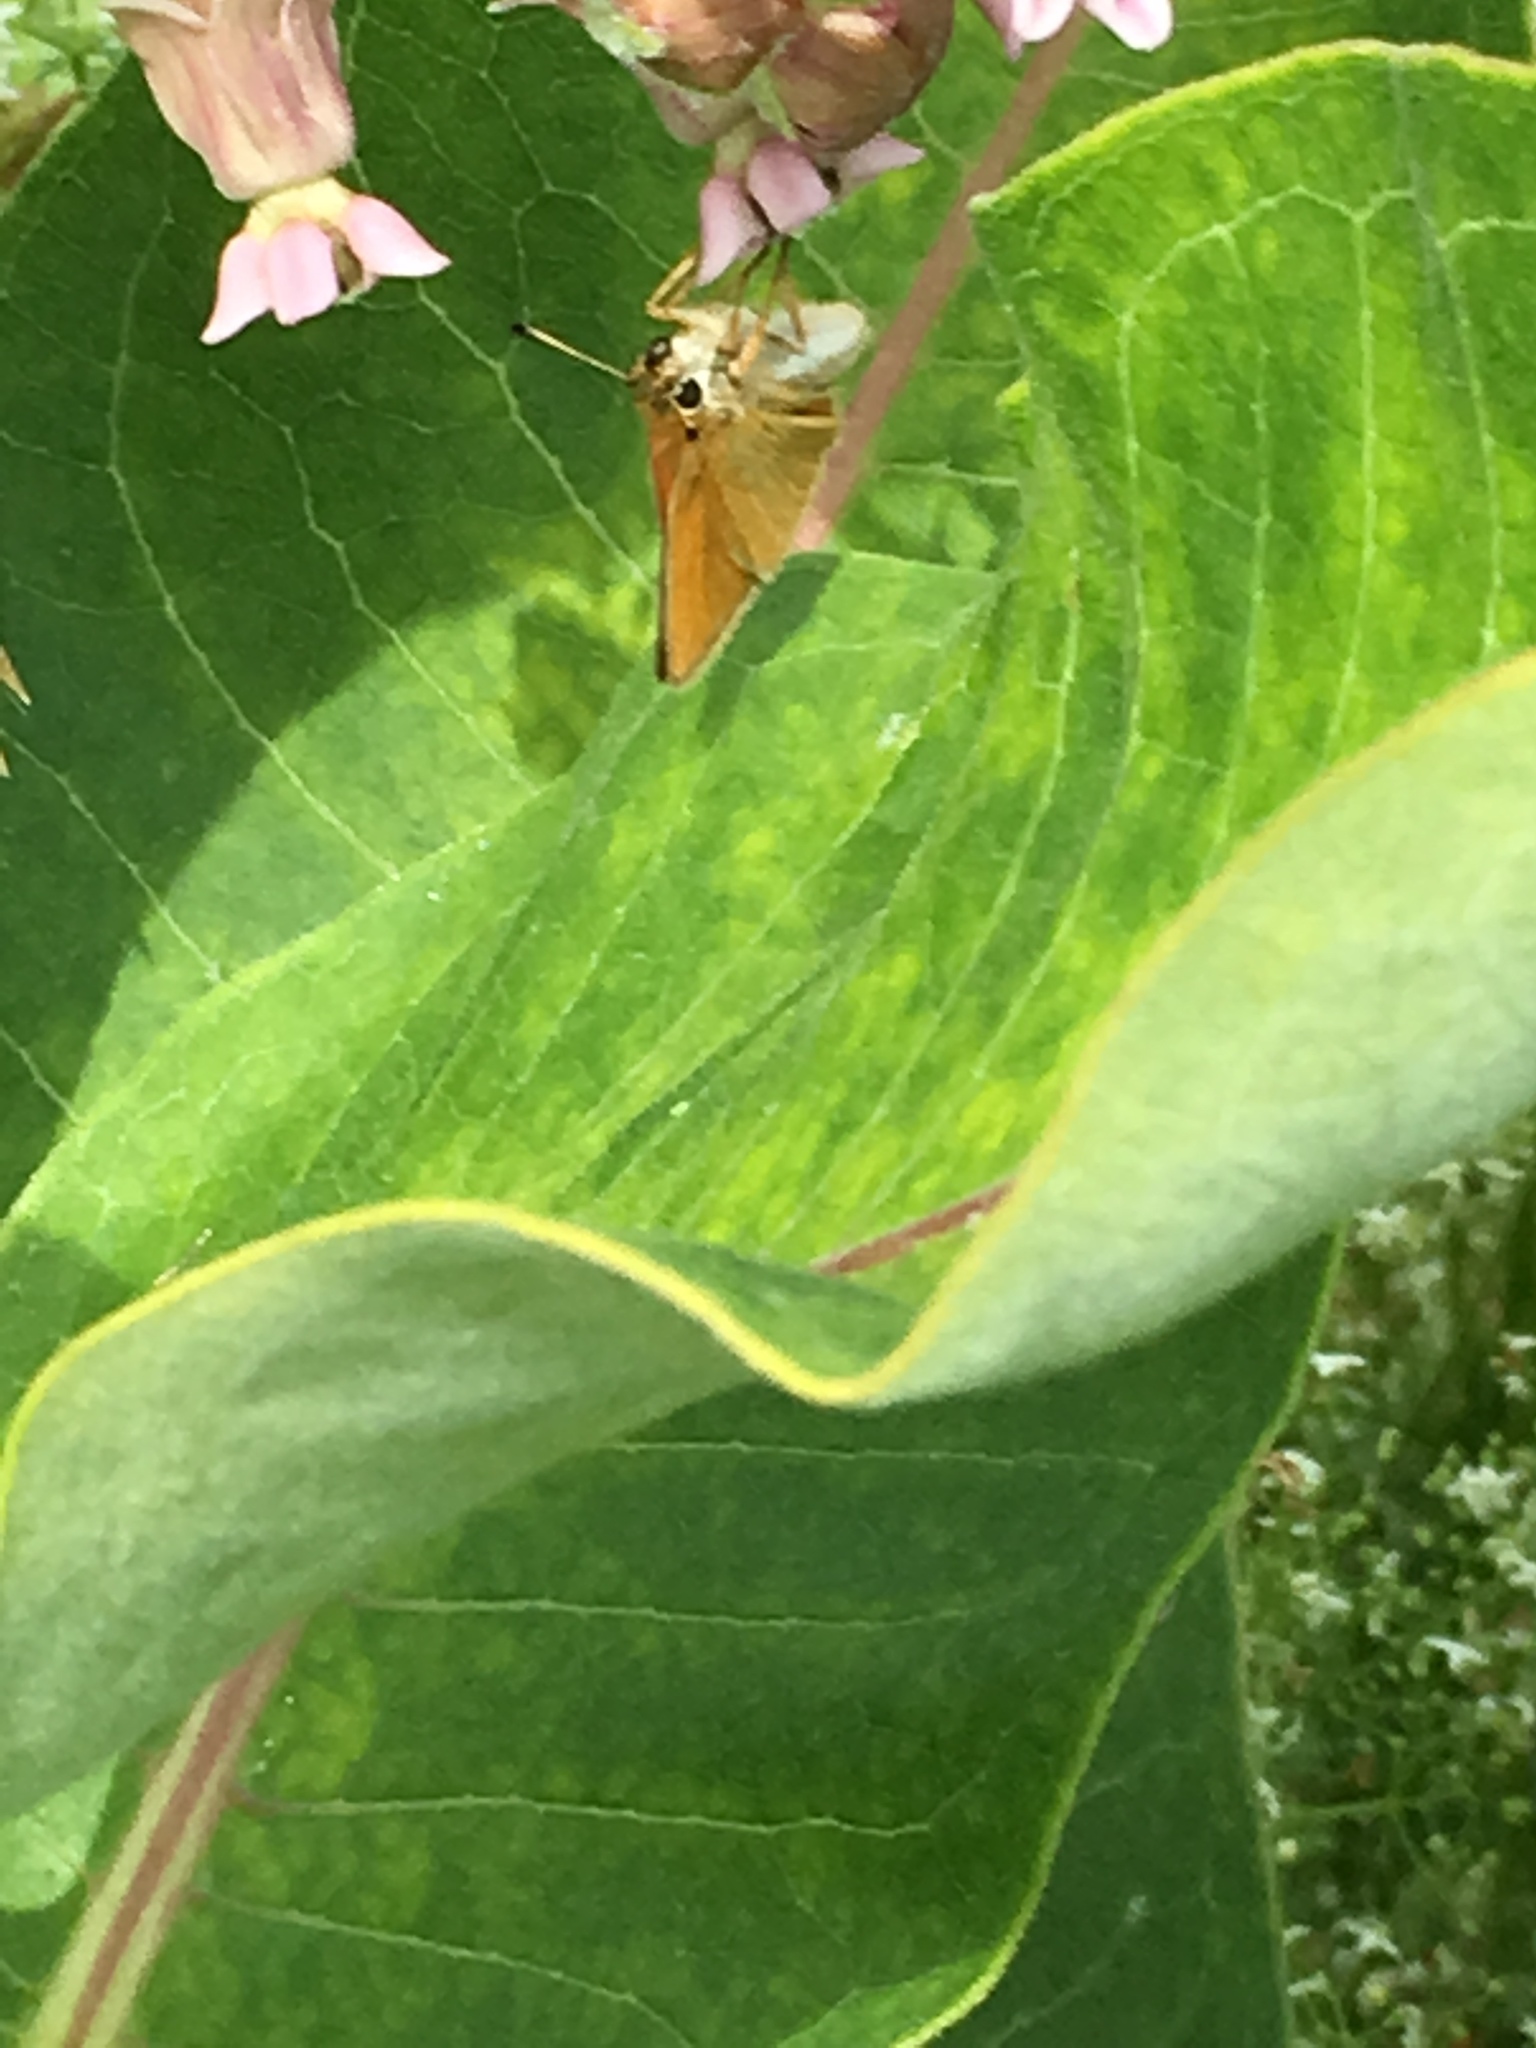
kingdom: Animalia
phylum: Arthropoda
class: Insecta
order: Lepidoptera
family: Hesperiidae
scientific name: Hesperiidae
